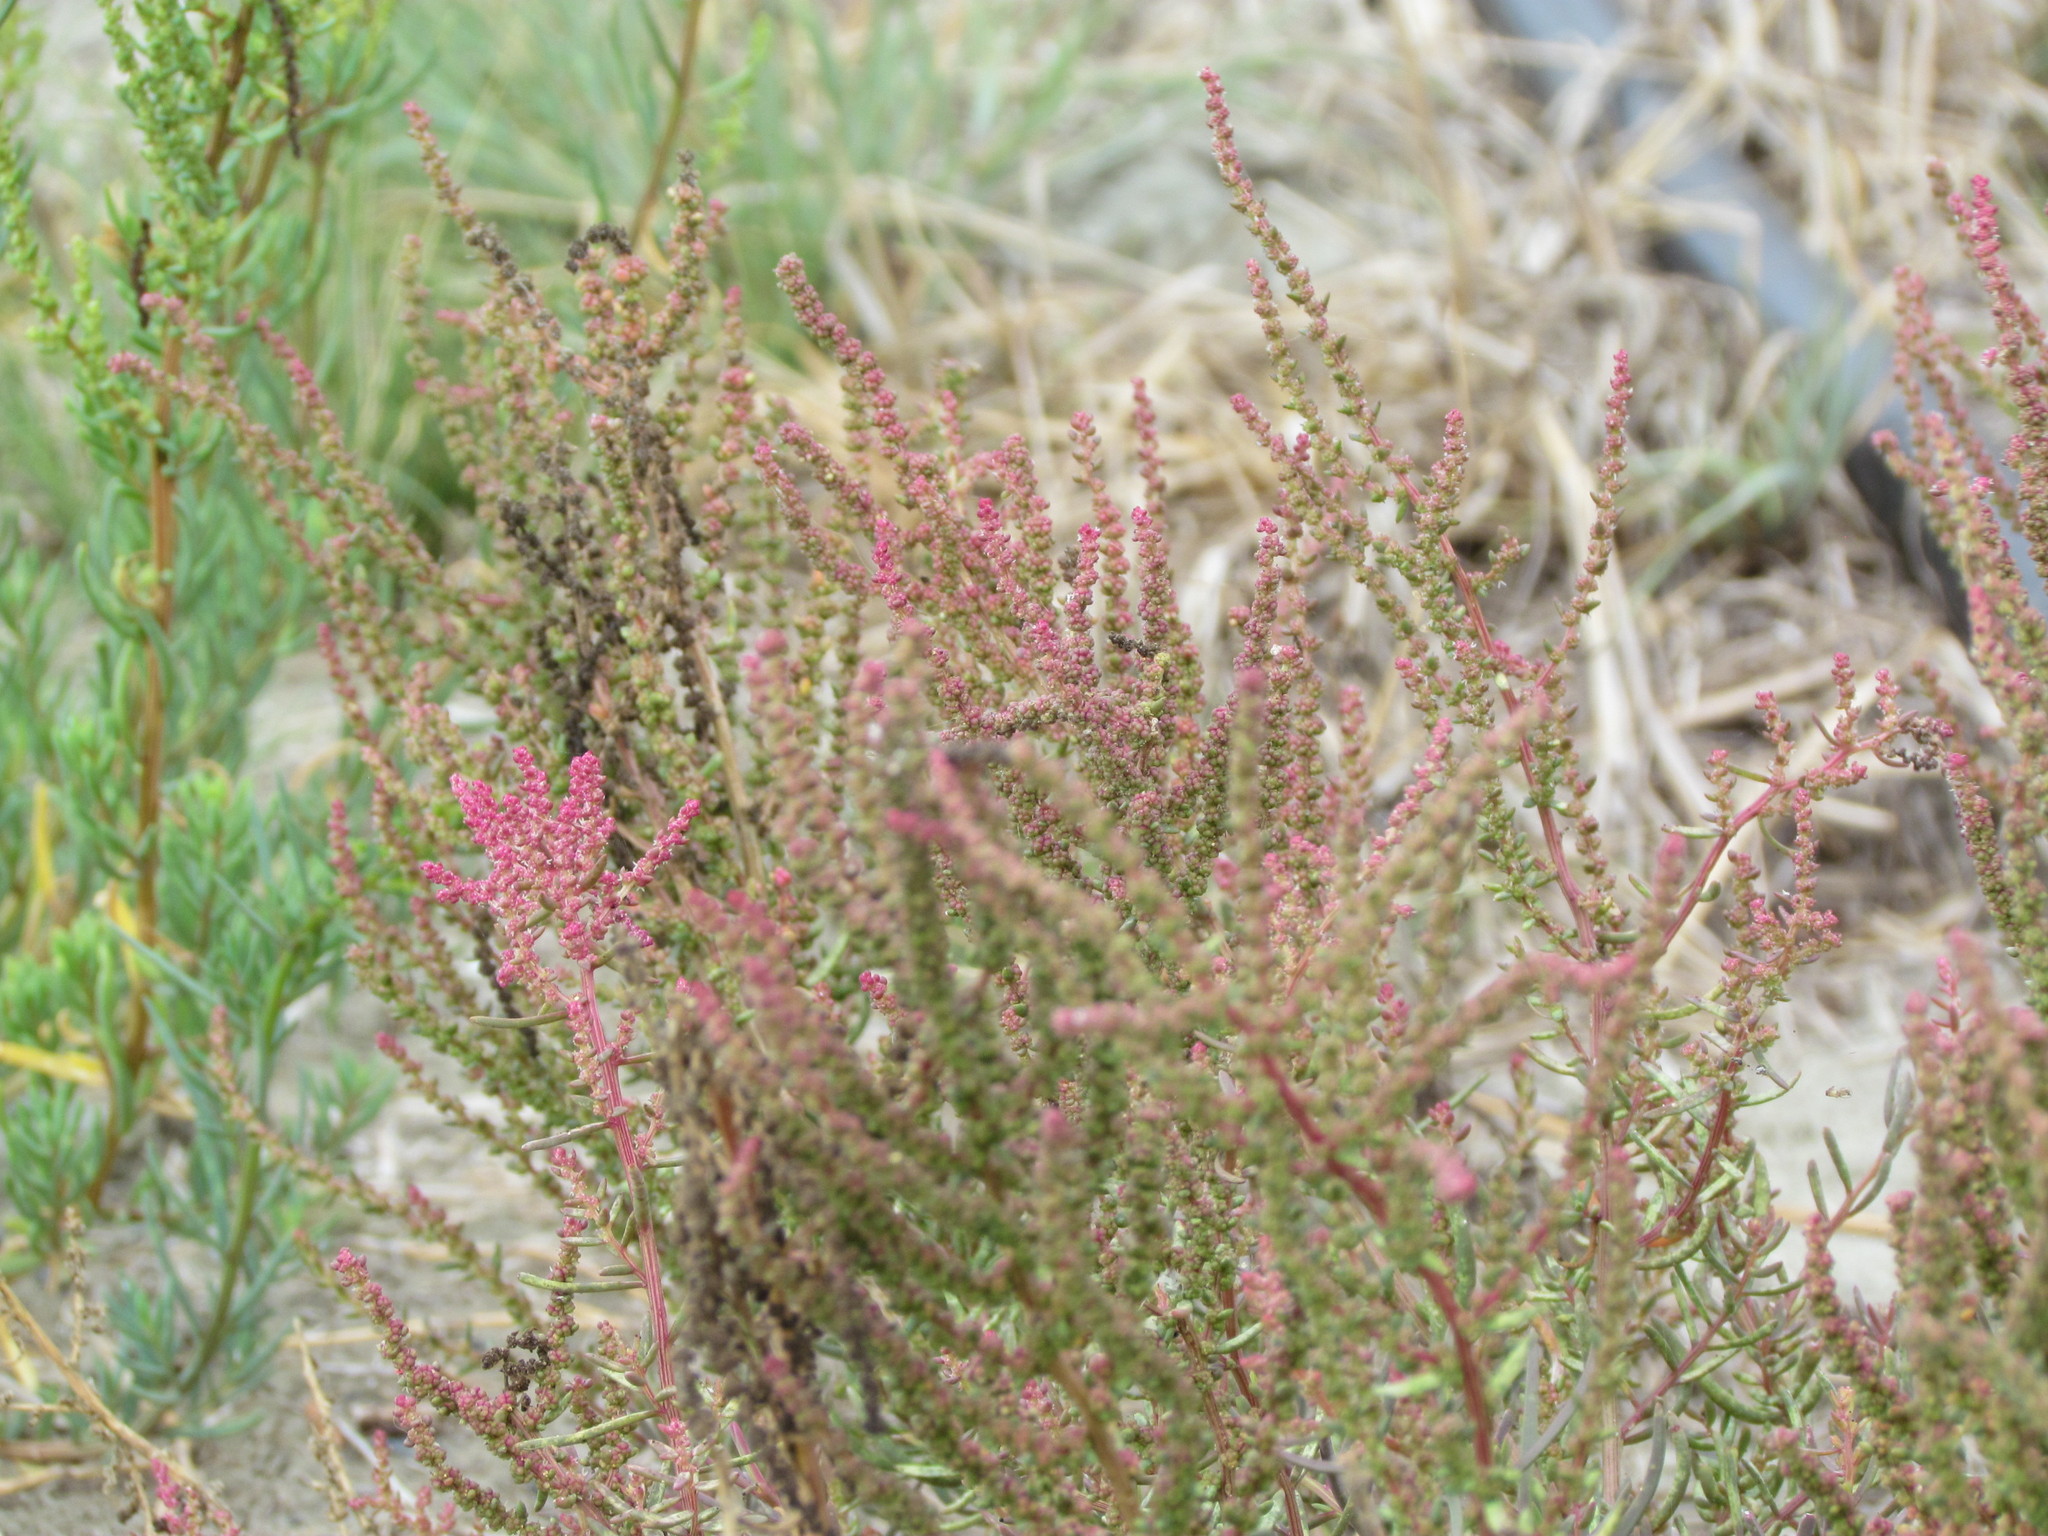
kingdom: Plantae
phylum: Tracheophyta
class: Magnoliopsida
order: Caryophyllales
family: Amaranthaceae
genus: Suaeda
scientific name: Suaeda maritima
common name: Annual sea-blite
